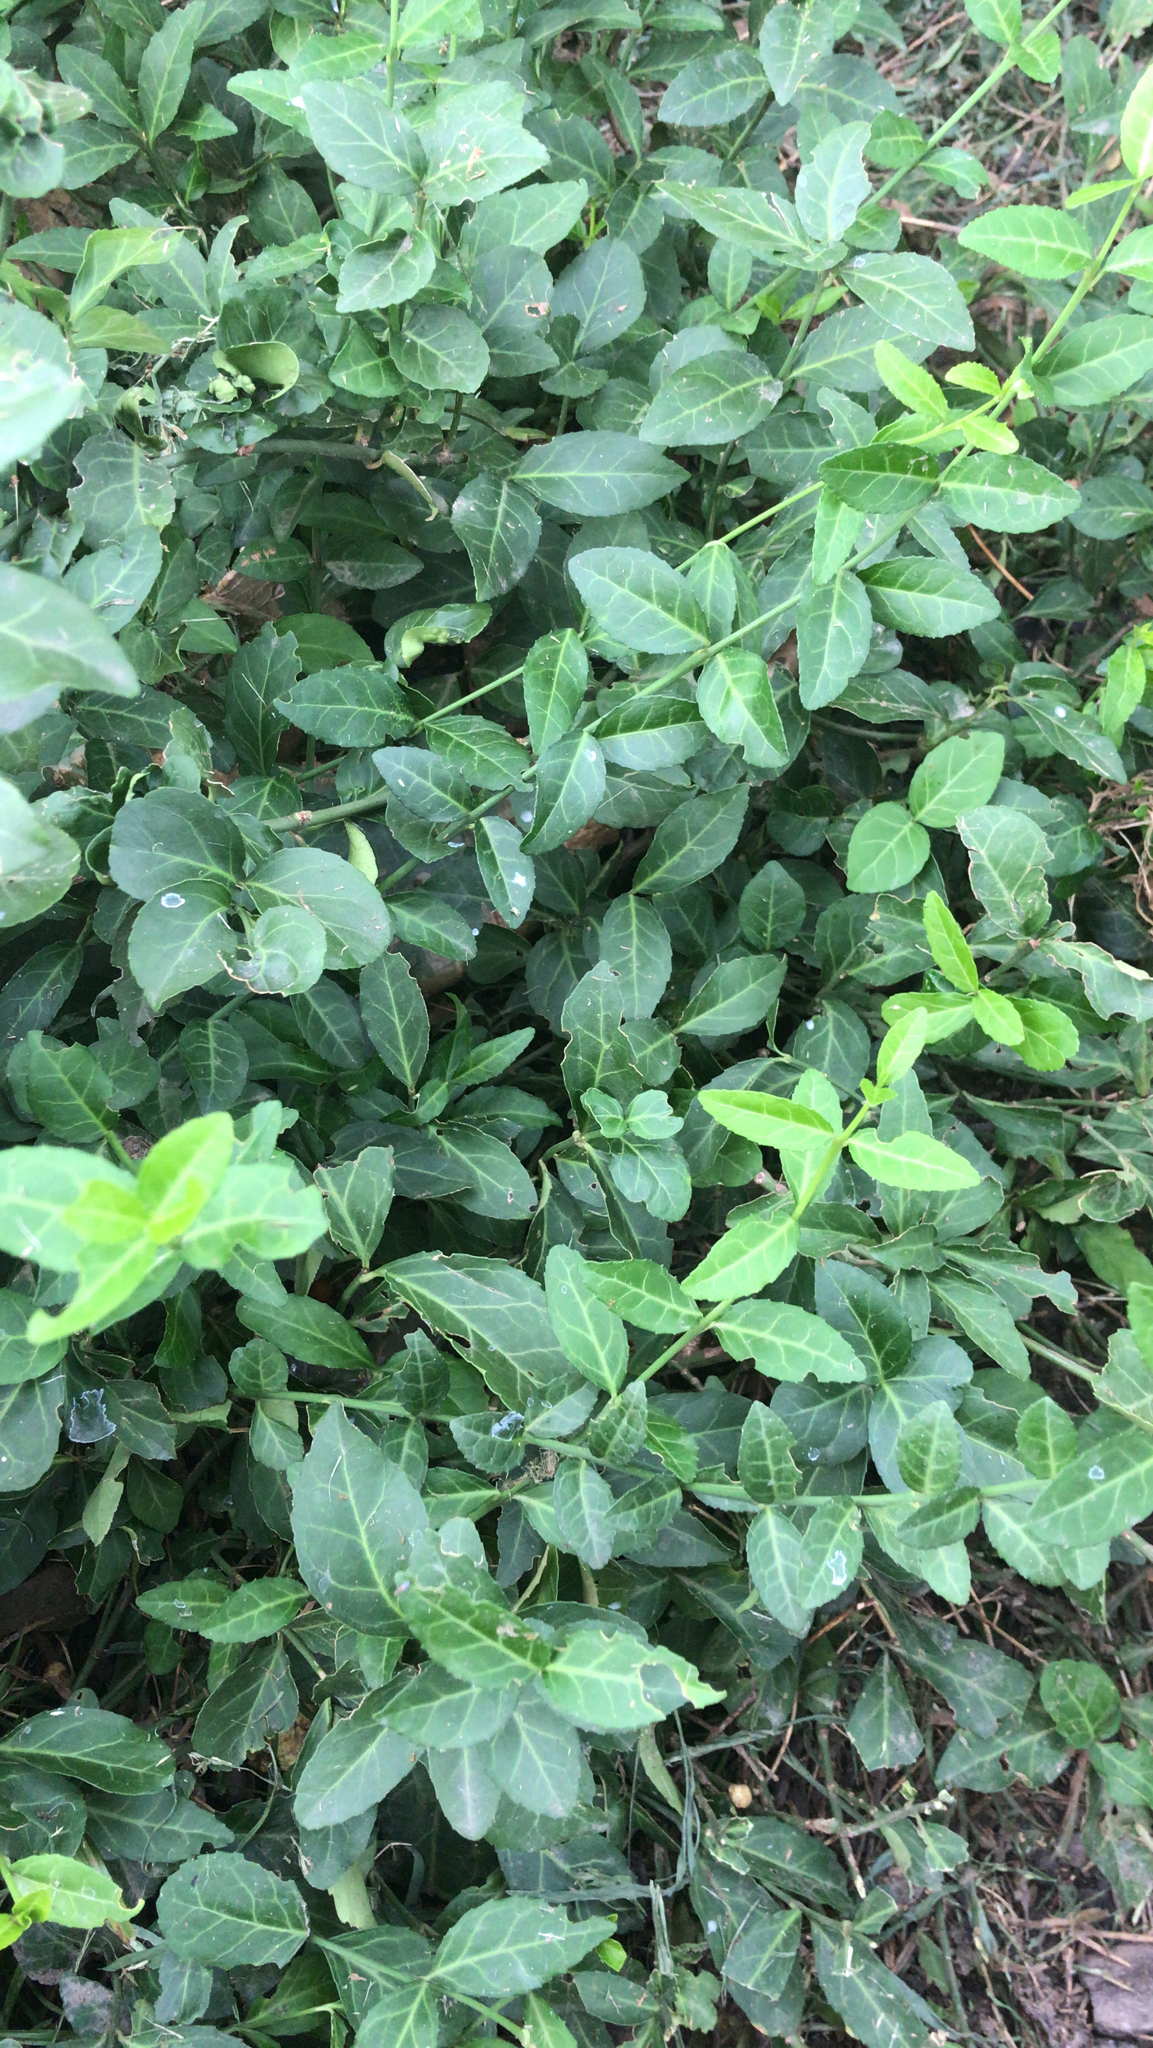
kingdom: Plantae
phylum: Tracheophyta
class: Magnoliopsida
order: Celastrales
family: Celastraceae
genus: Euonymus
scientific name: Euonymus fortunei
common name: Climbing euonymus
